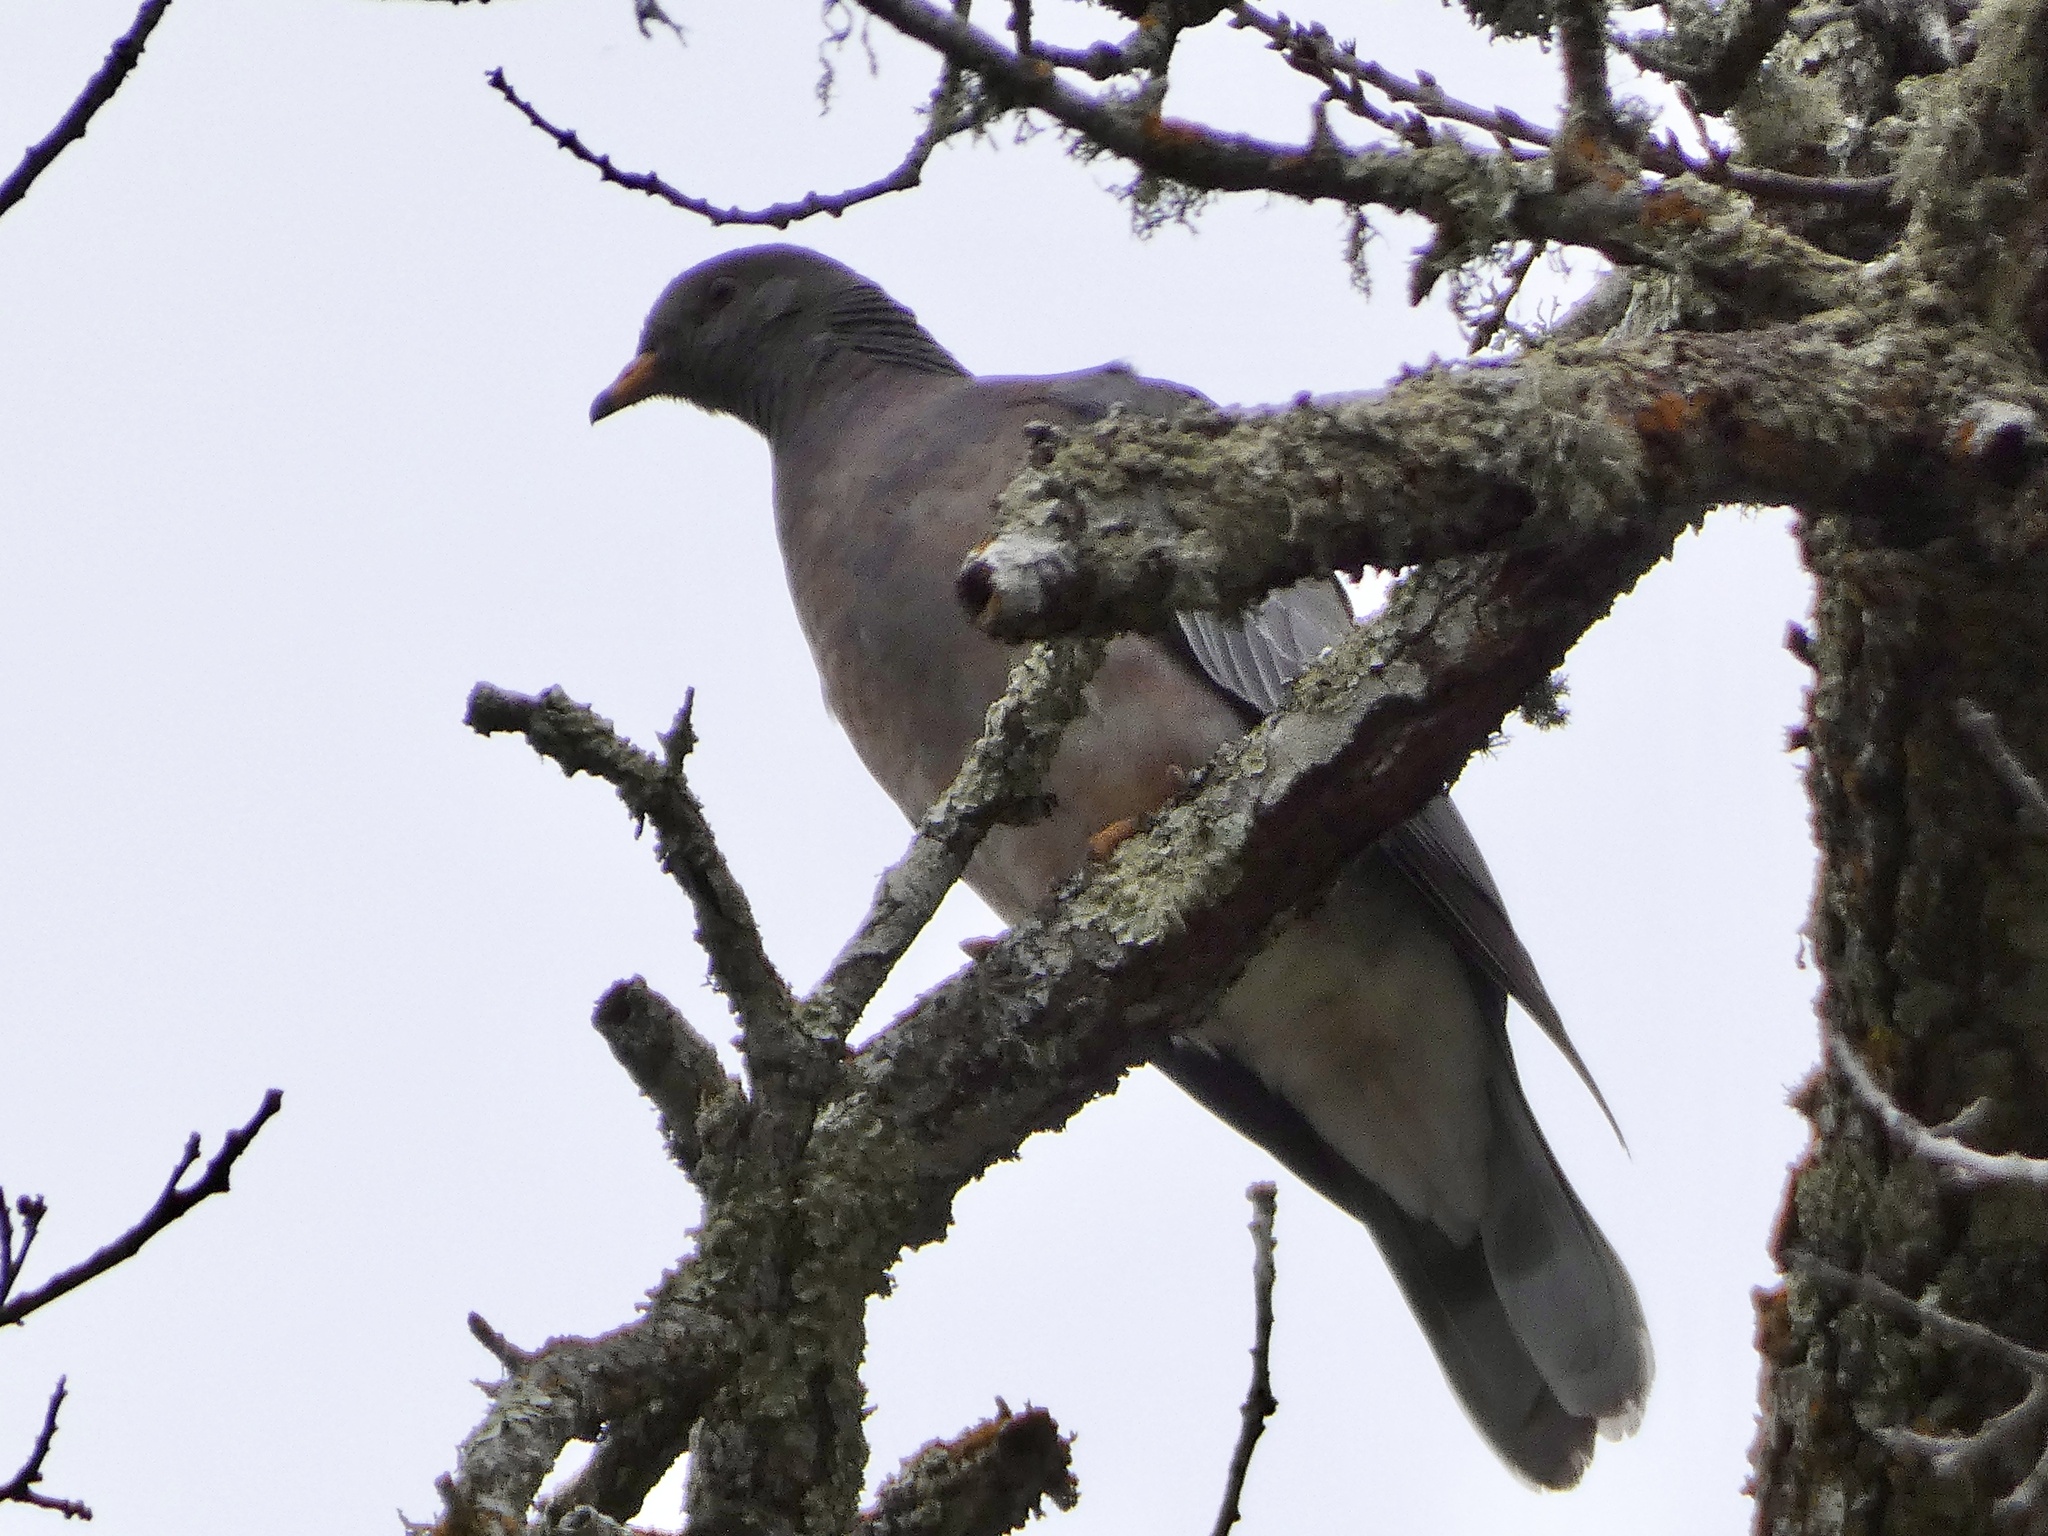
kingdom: Animalia
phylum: Chordata
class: Aves
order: Columbiformes
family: Columbidae
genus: Patagioenas
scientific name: Patagioenas fasciata
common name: Band-tailed pigeon
